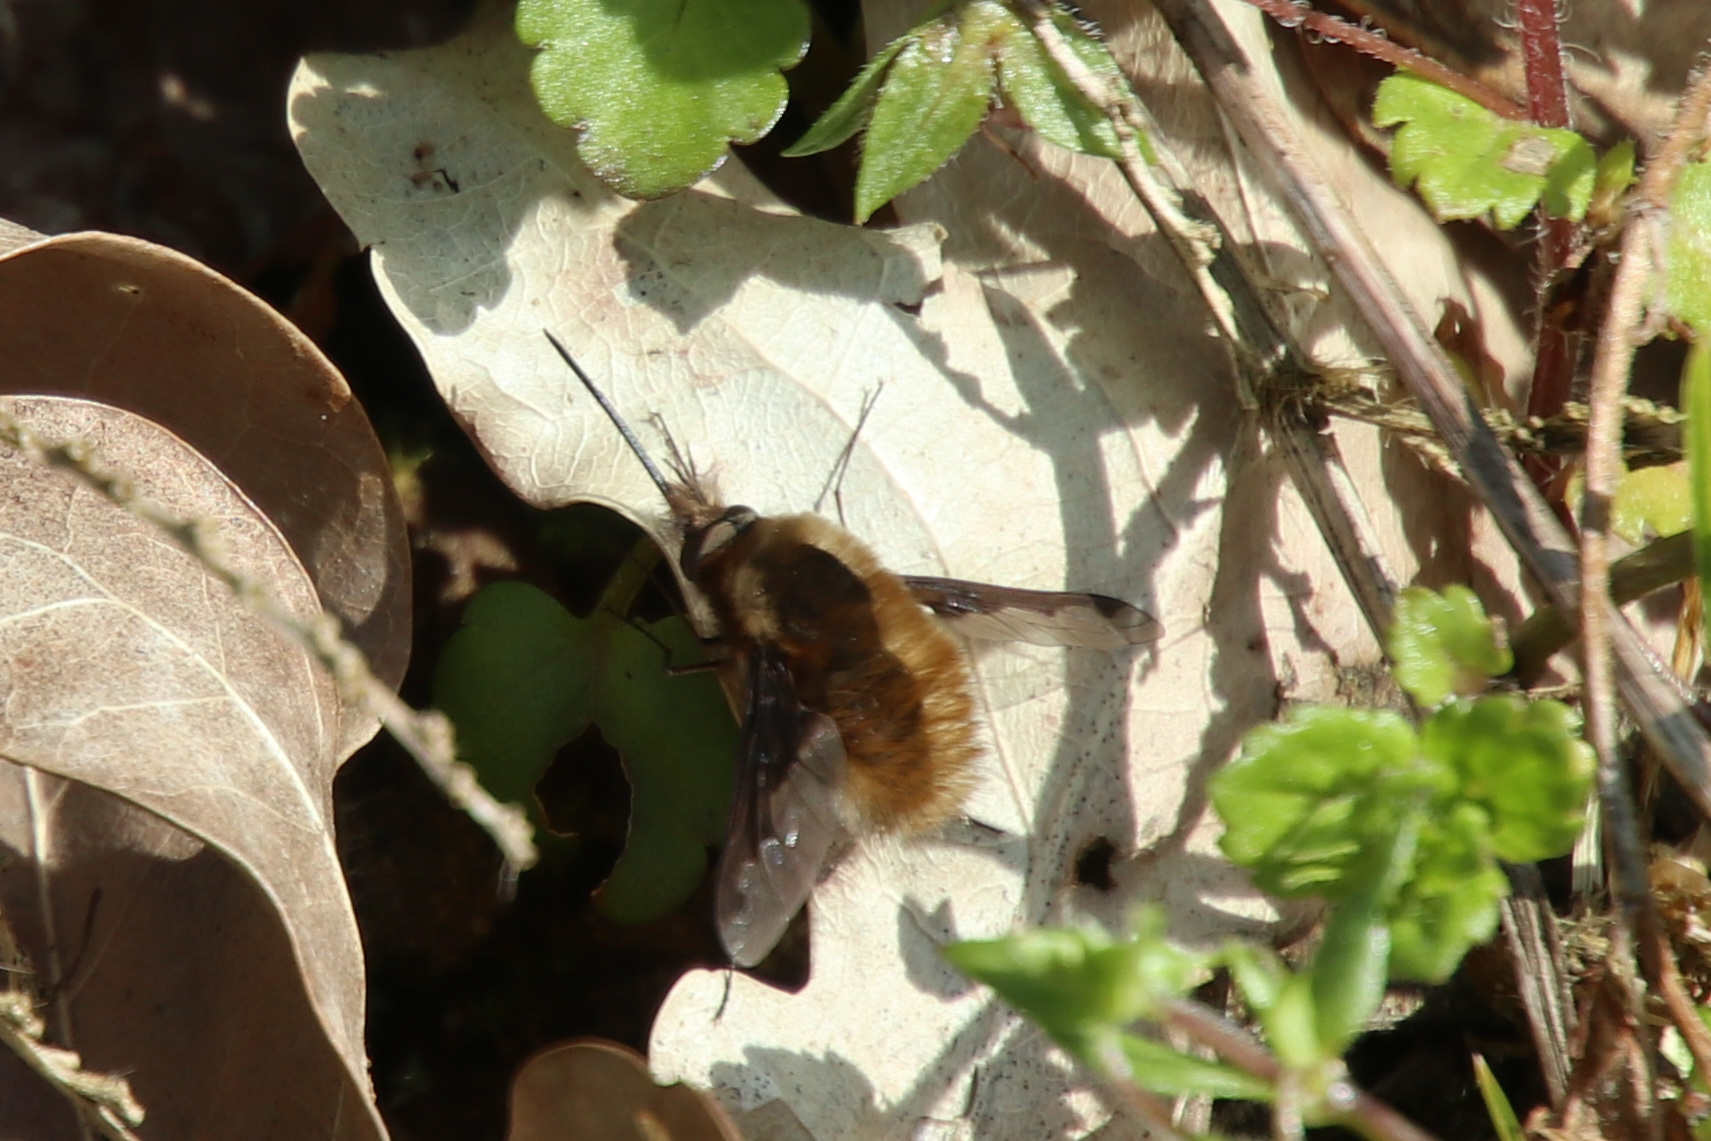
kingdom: Animalia
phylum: Arthropoda
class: Insecta
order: Diptera
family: Bombyliidae
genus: Bombylius
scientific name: Bombylius major
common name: Bee fly
